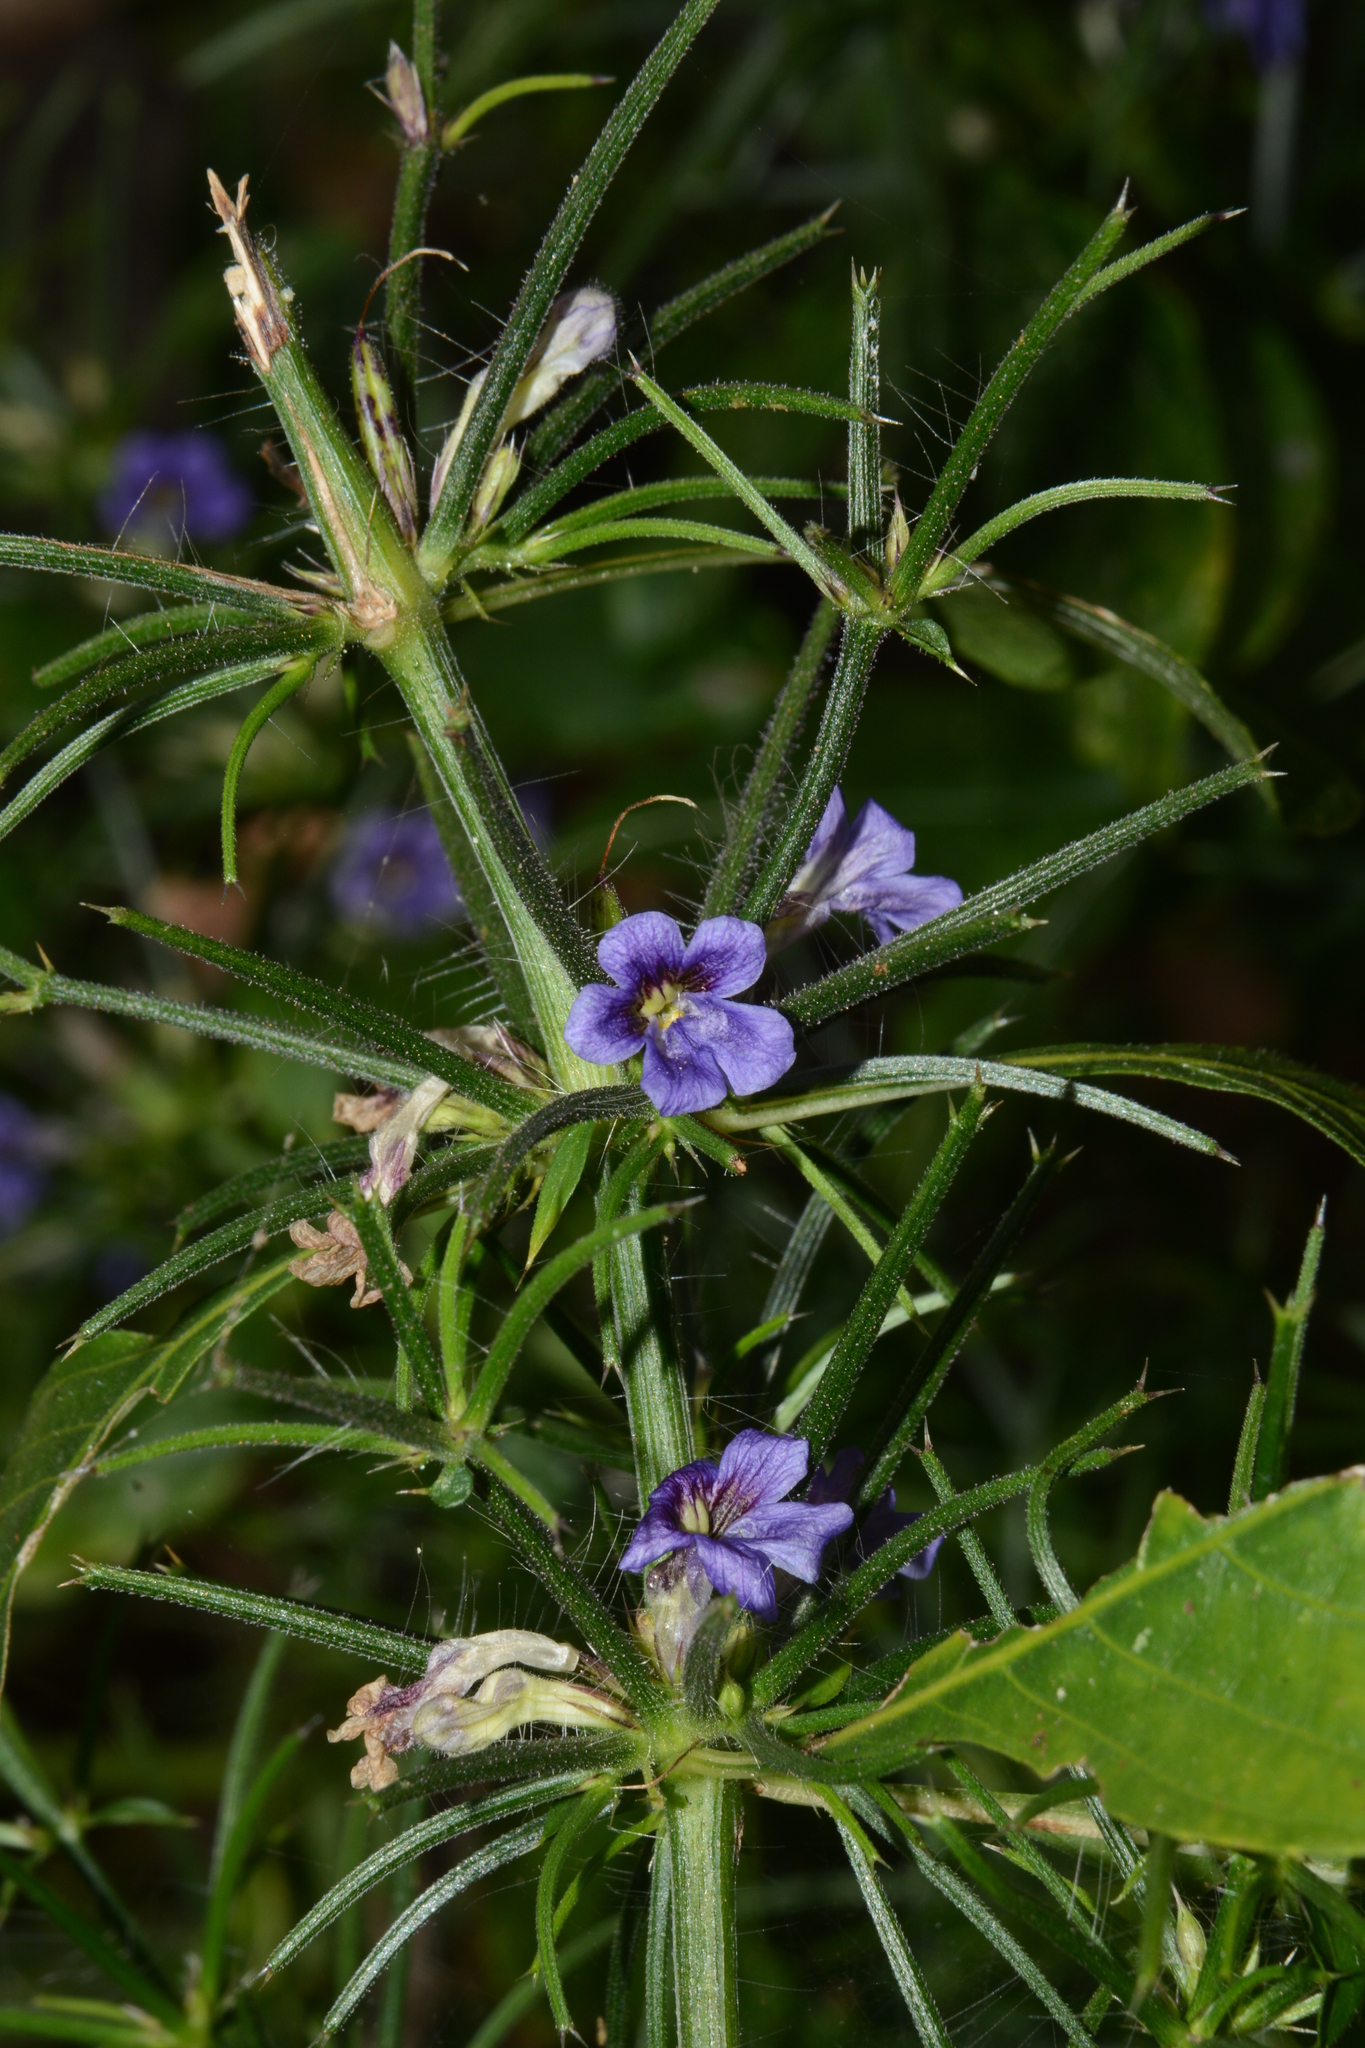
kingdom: Plantae
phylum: Tracheophyta
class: Magnoliopsida
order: Lamiales
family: Acanthaceae
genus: Haplanthodes
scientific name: Haplanthodes verticillatus
